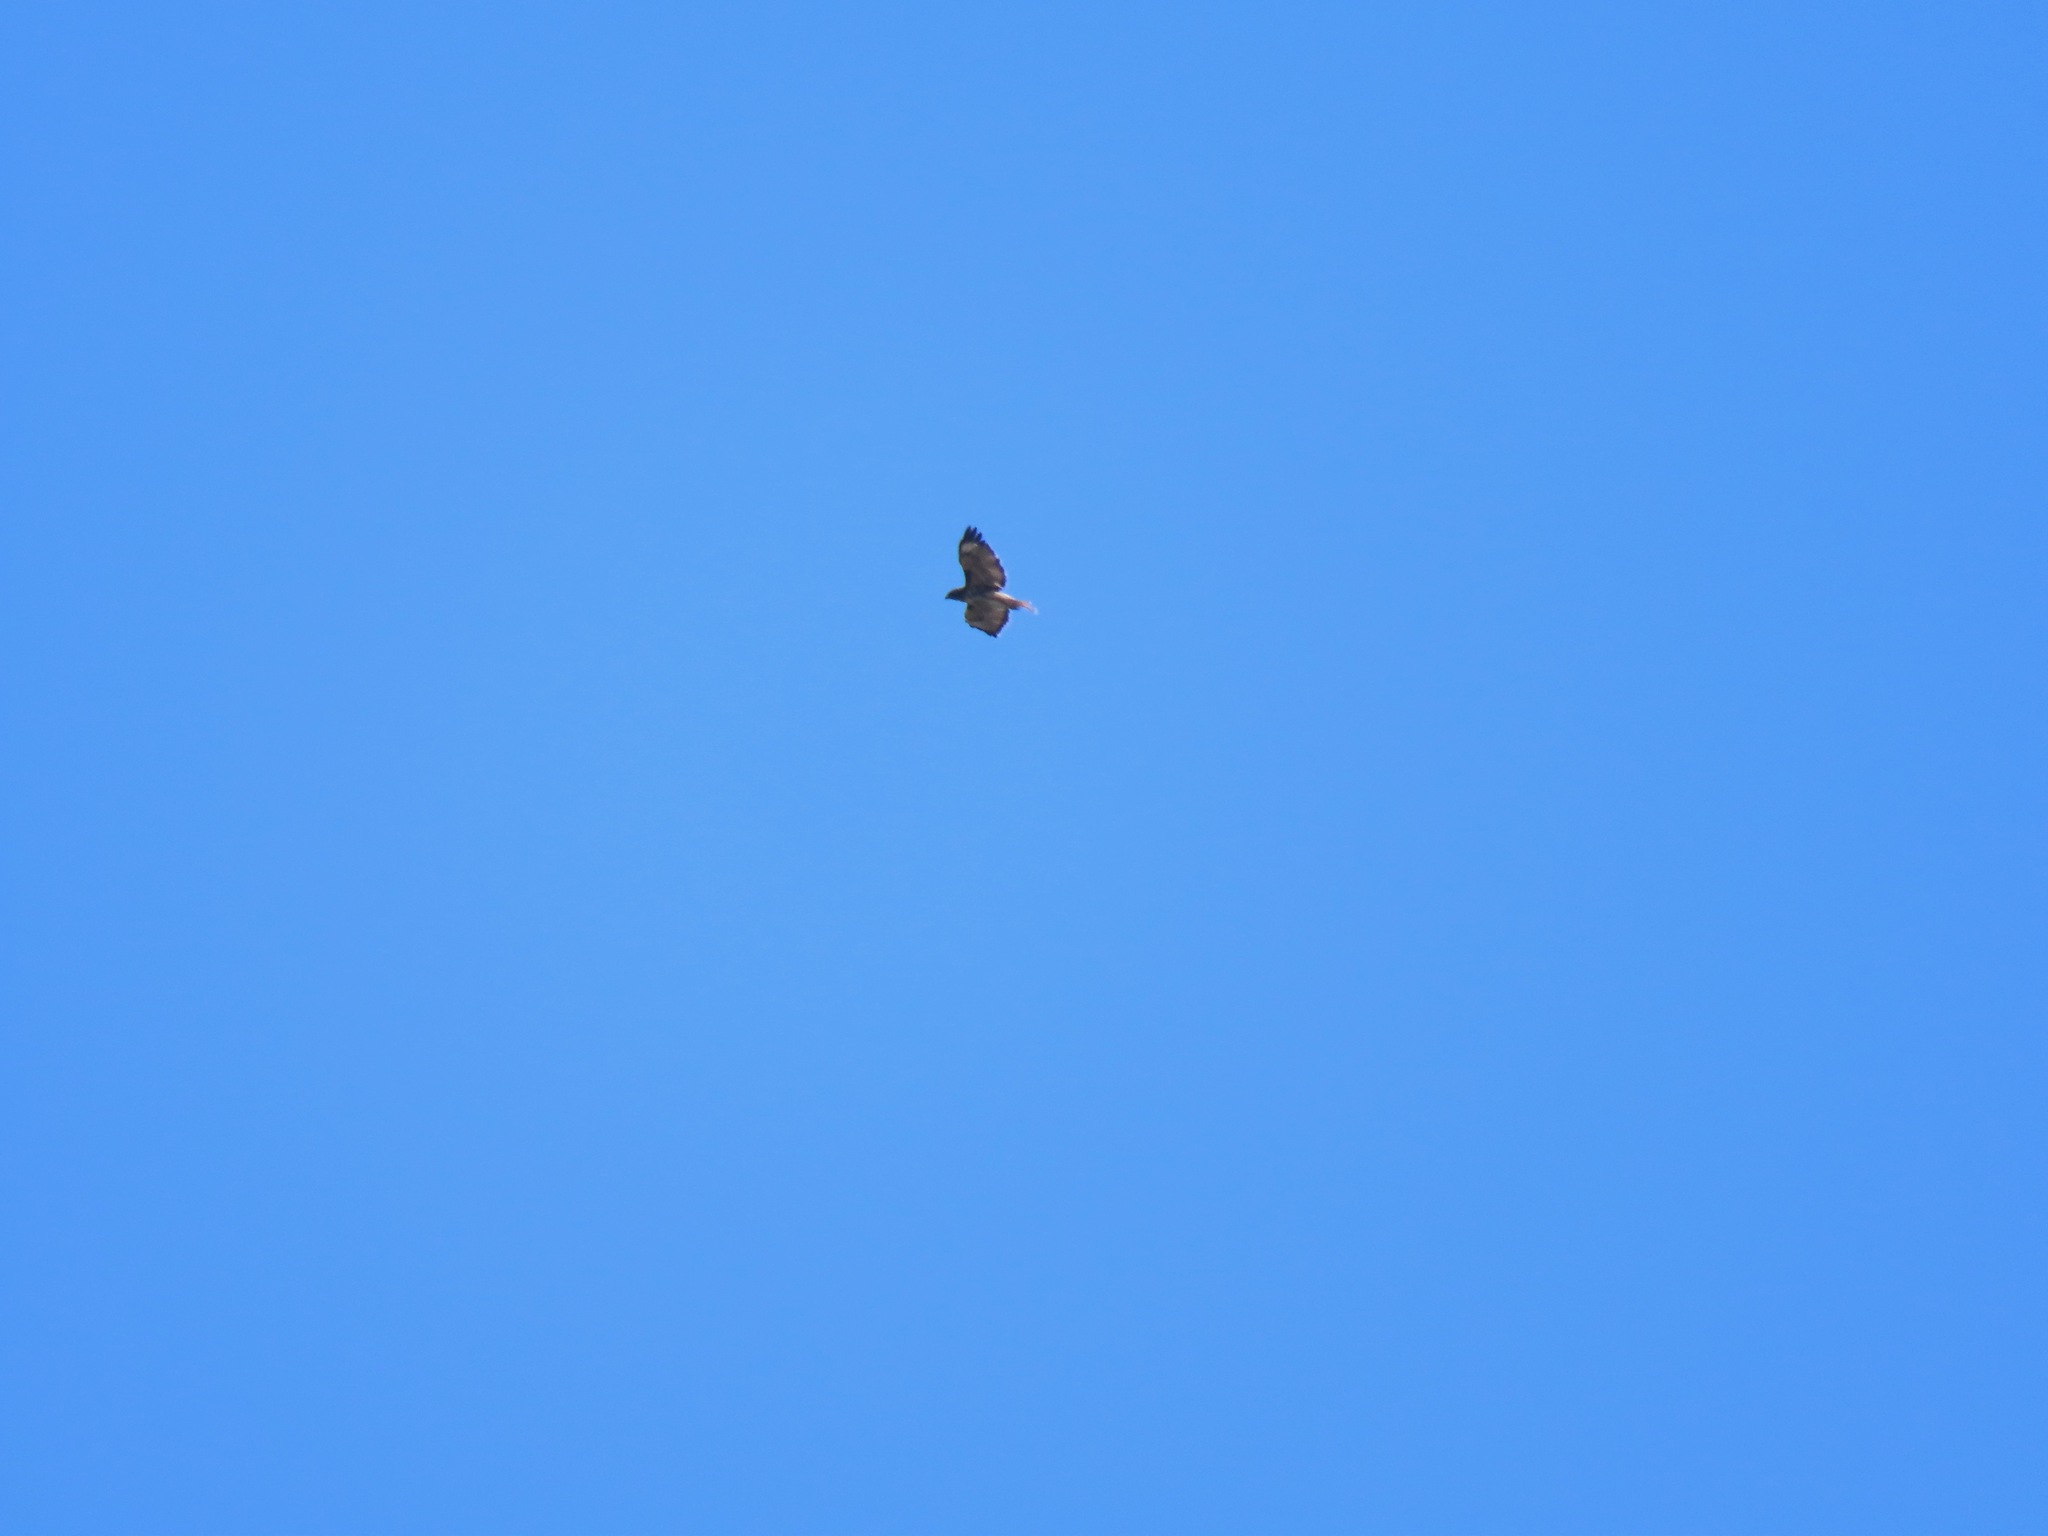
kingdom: Animalia
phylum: Chordata
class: Aves
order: Accipitriformes
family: Accipitridae
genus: Buteo
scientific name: Buteo jamaicensis
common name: Red-tailed hawk
